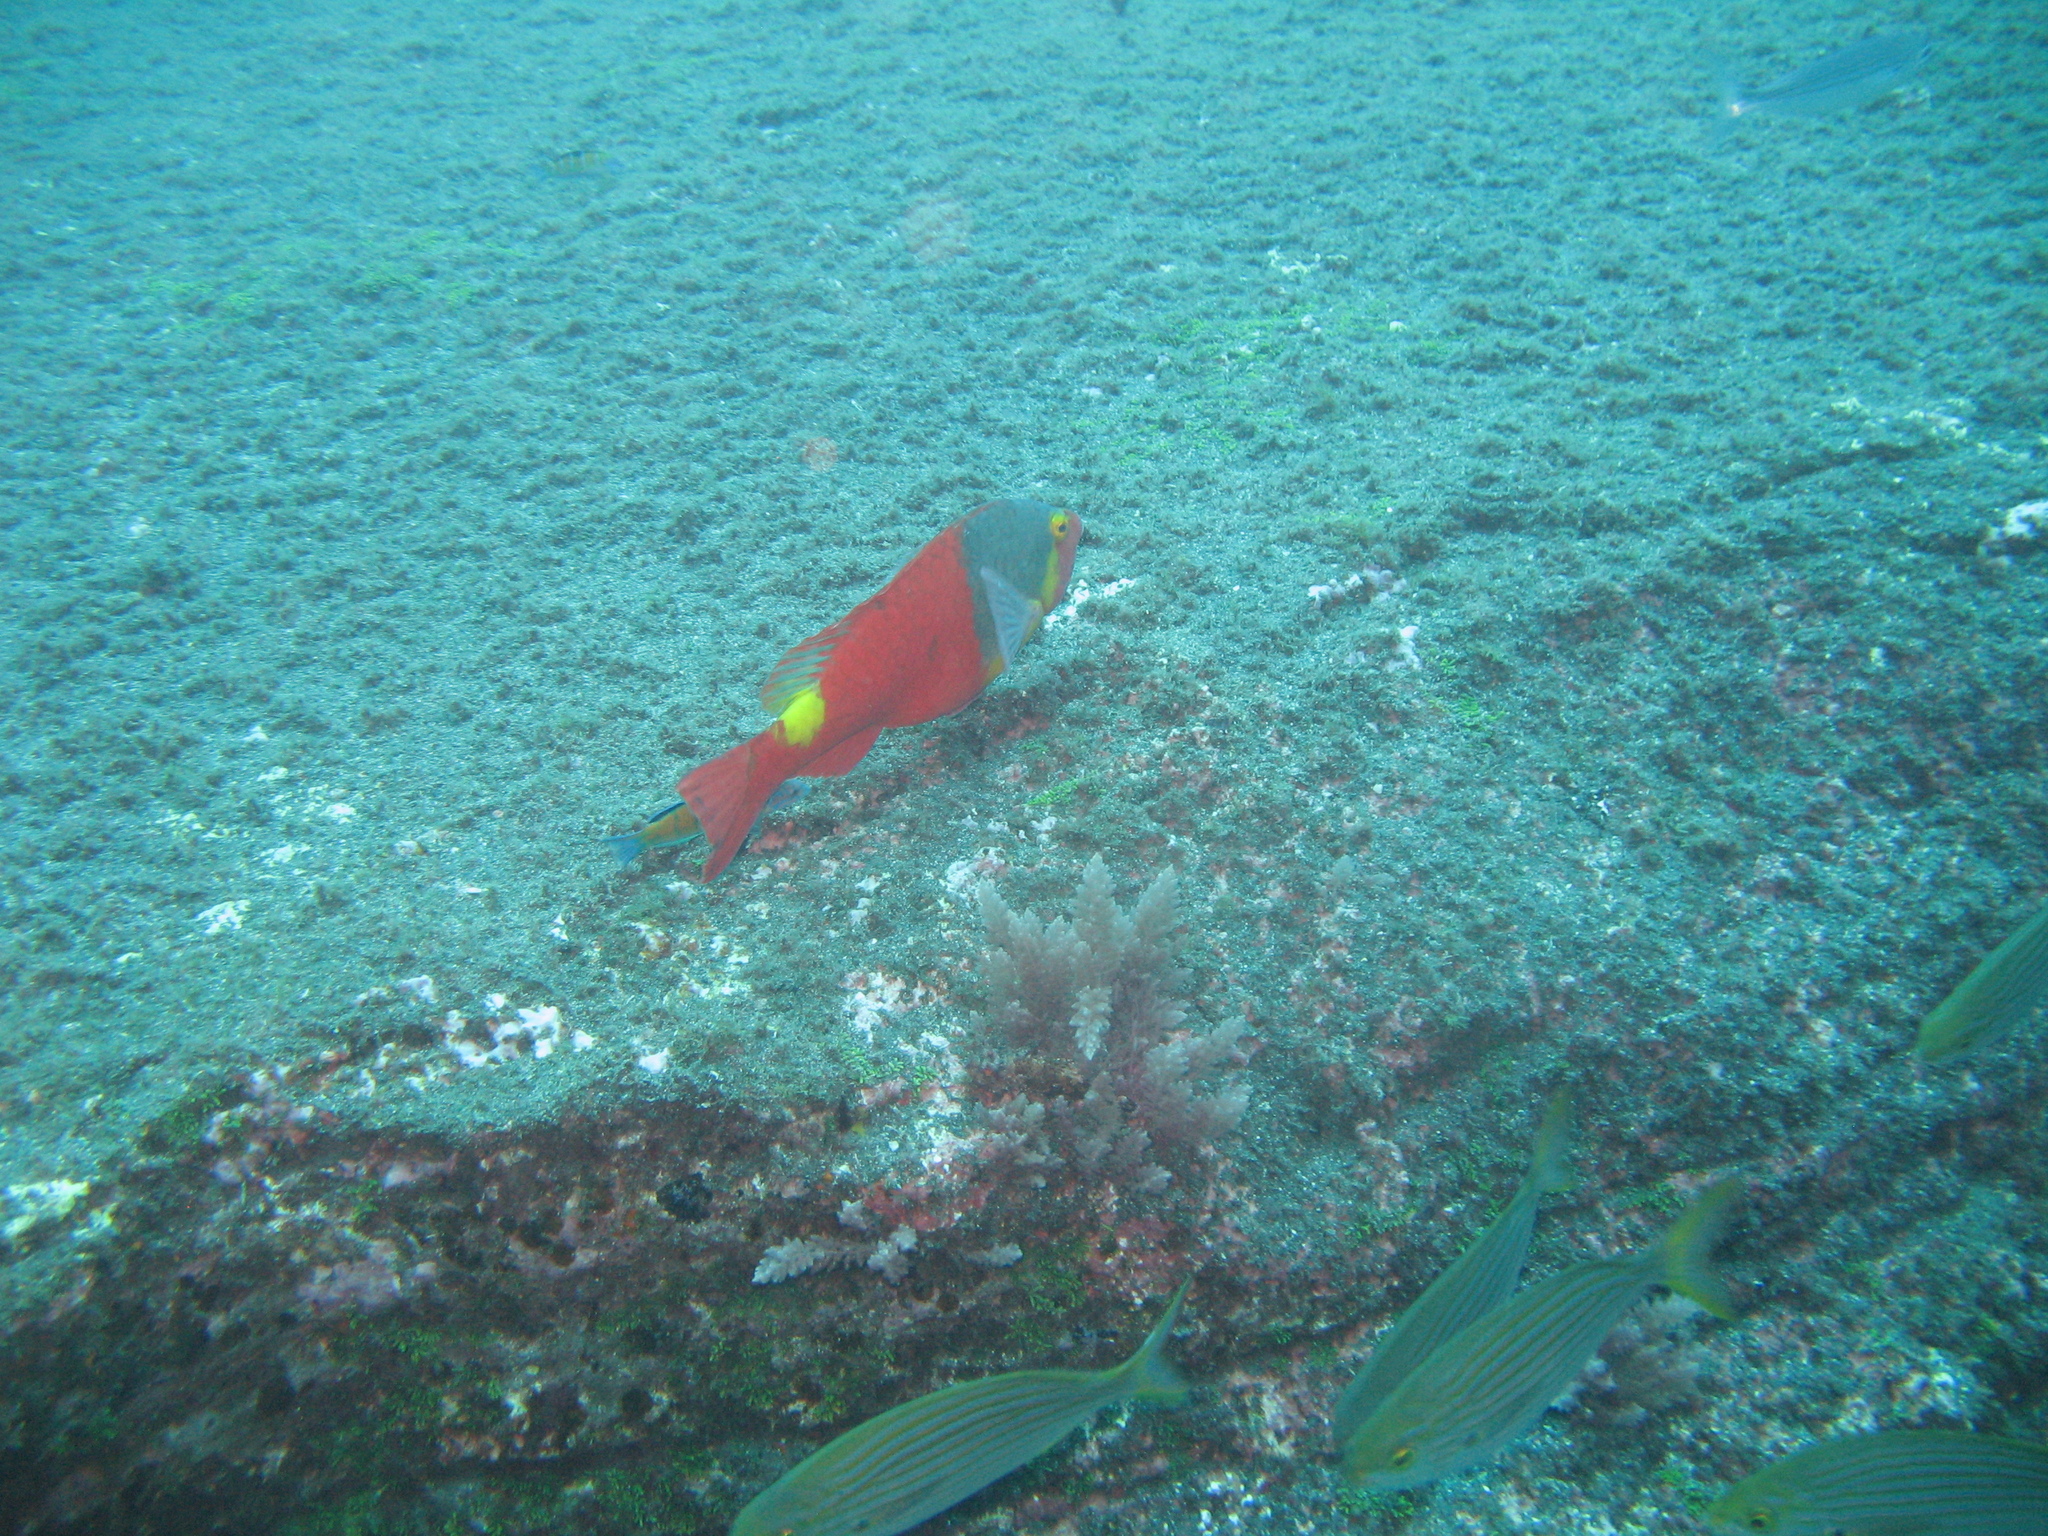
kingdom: Animalia
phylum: Chordata
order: Perciformes
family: Scaridae
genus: Sparisoma
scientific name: Sparisoma cretense
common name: Parrotfish
